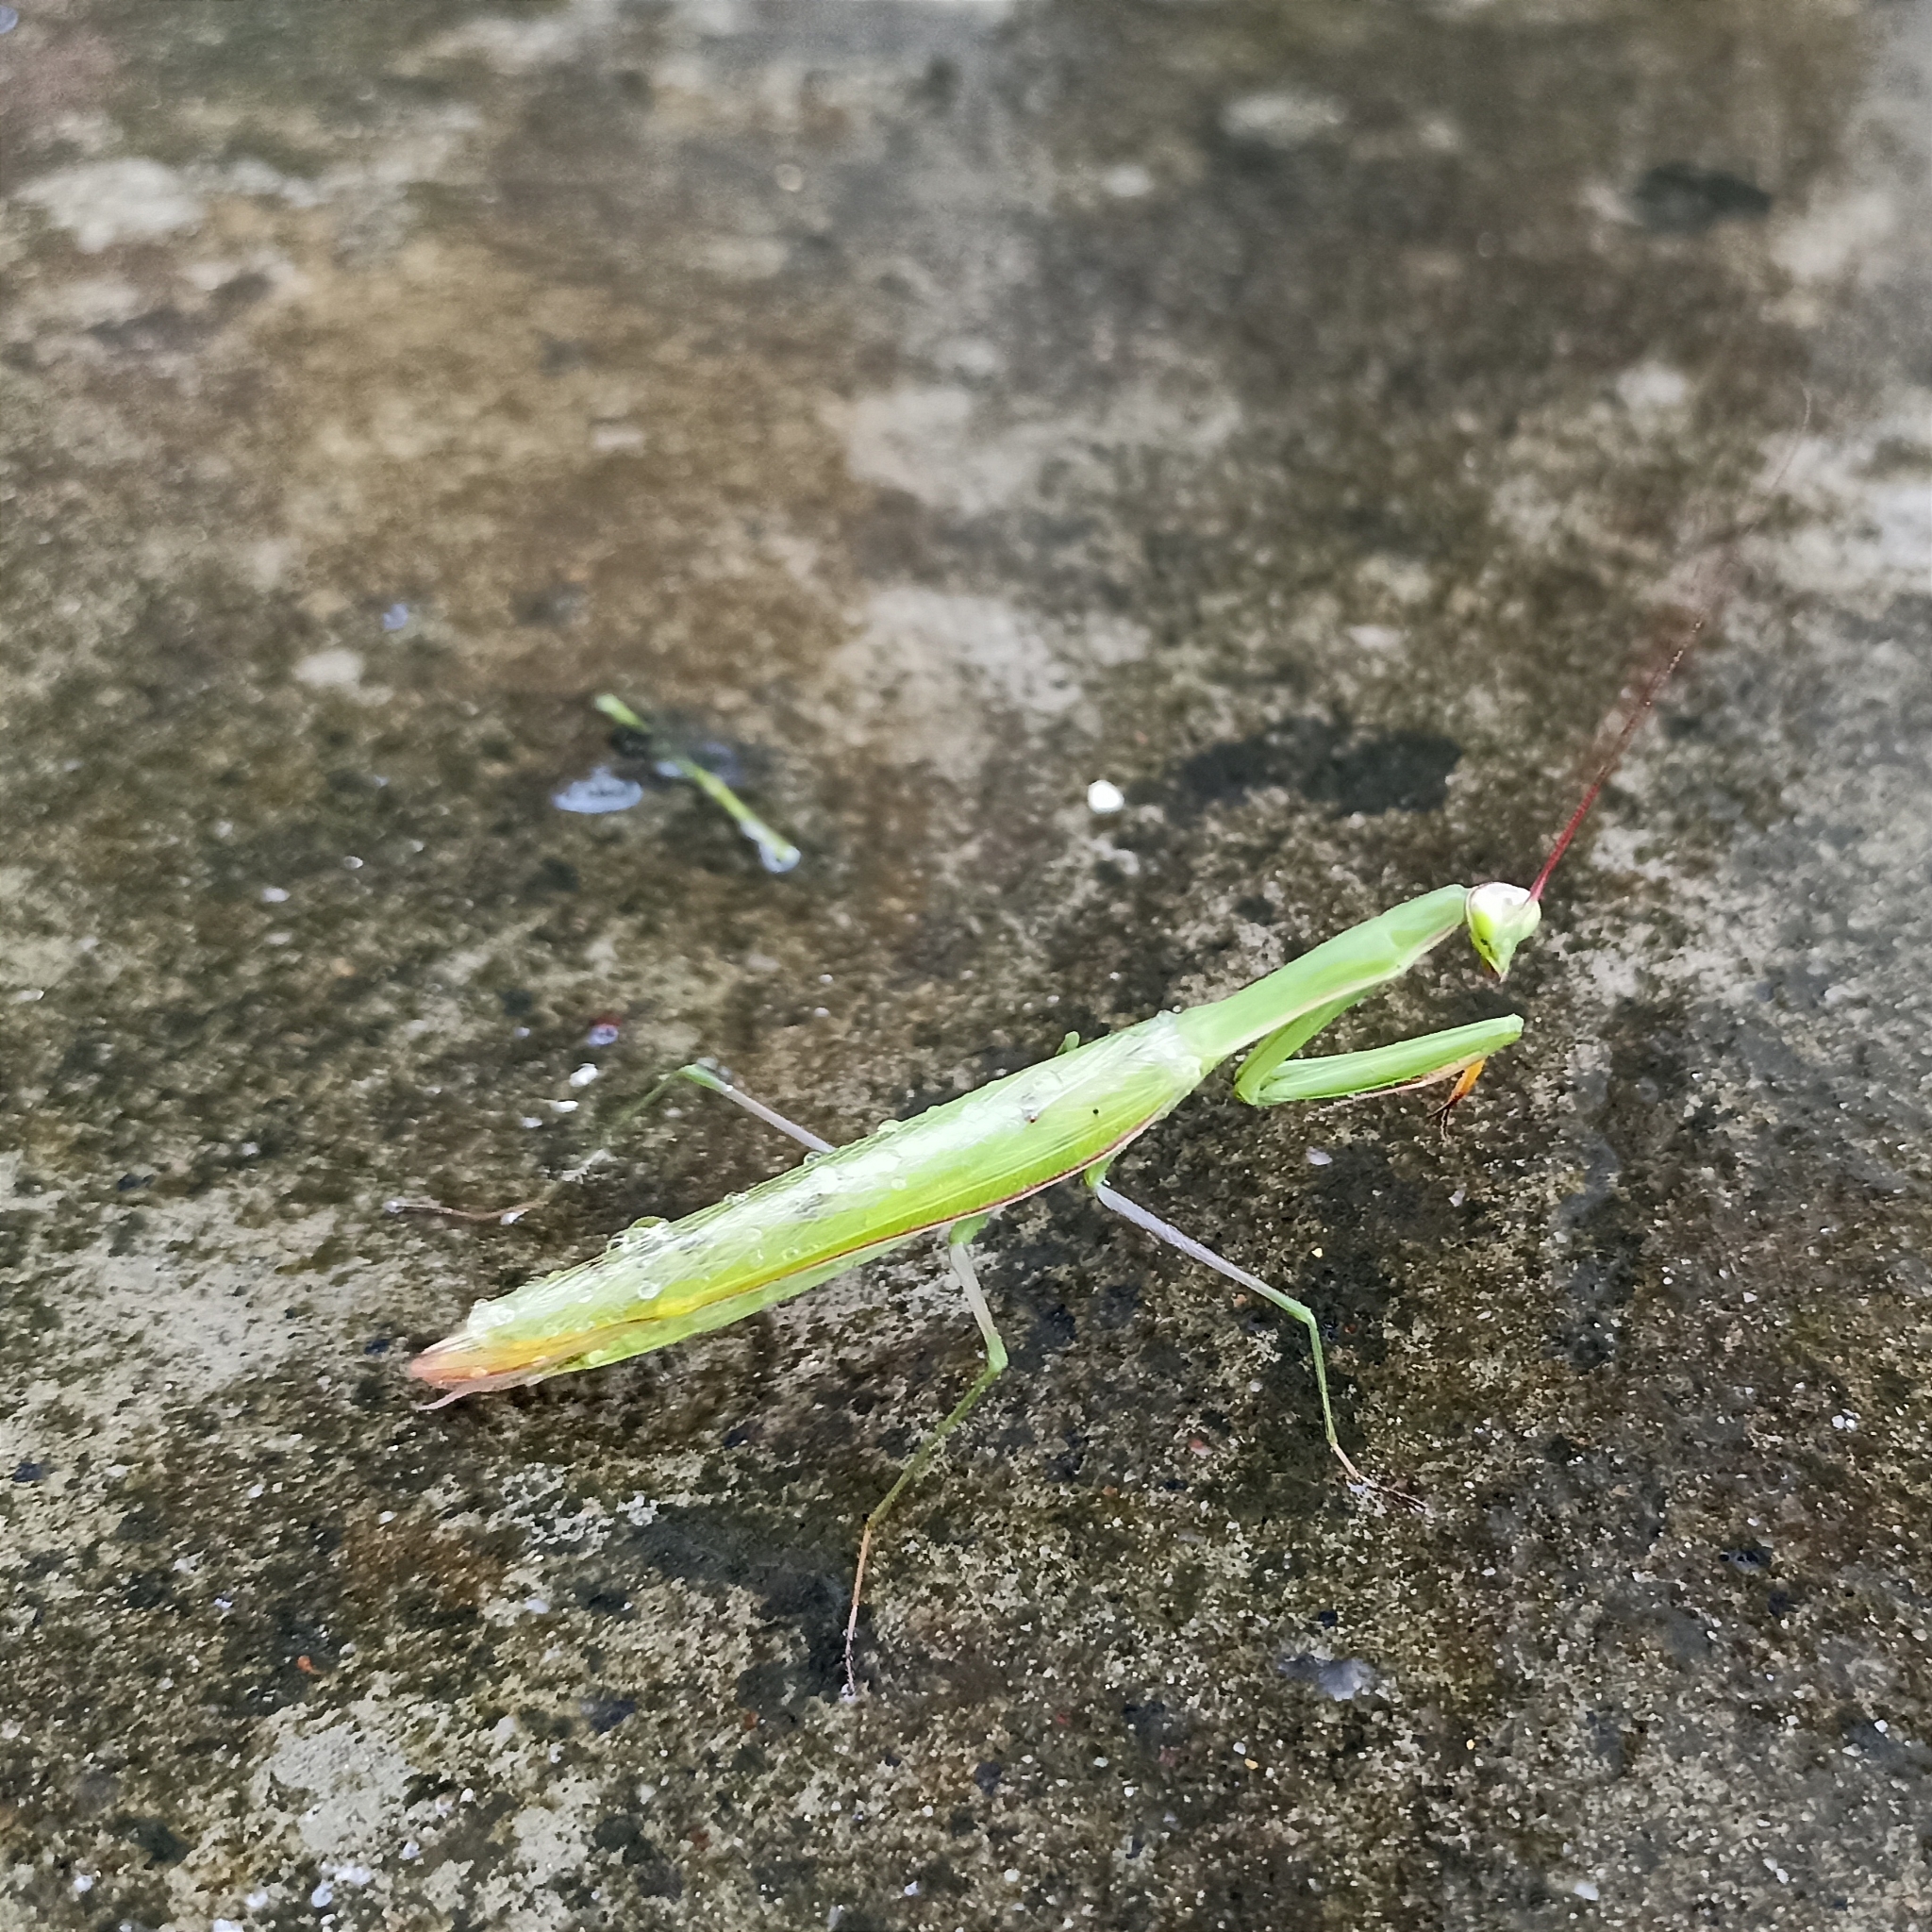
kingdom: Animalia
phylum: Arthropoda
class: Insecta
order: Mantodea
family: Mantidae
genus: Mantis
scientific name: Mantis religiosa
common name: Praying mantis
